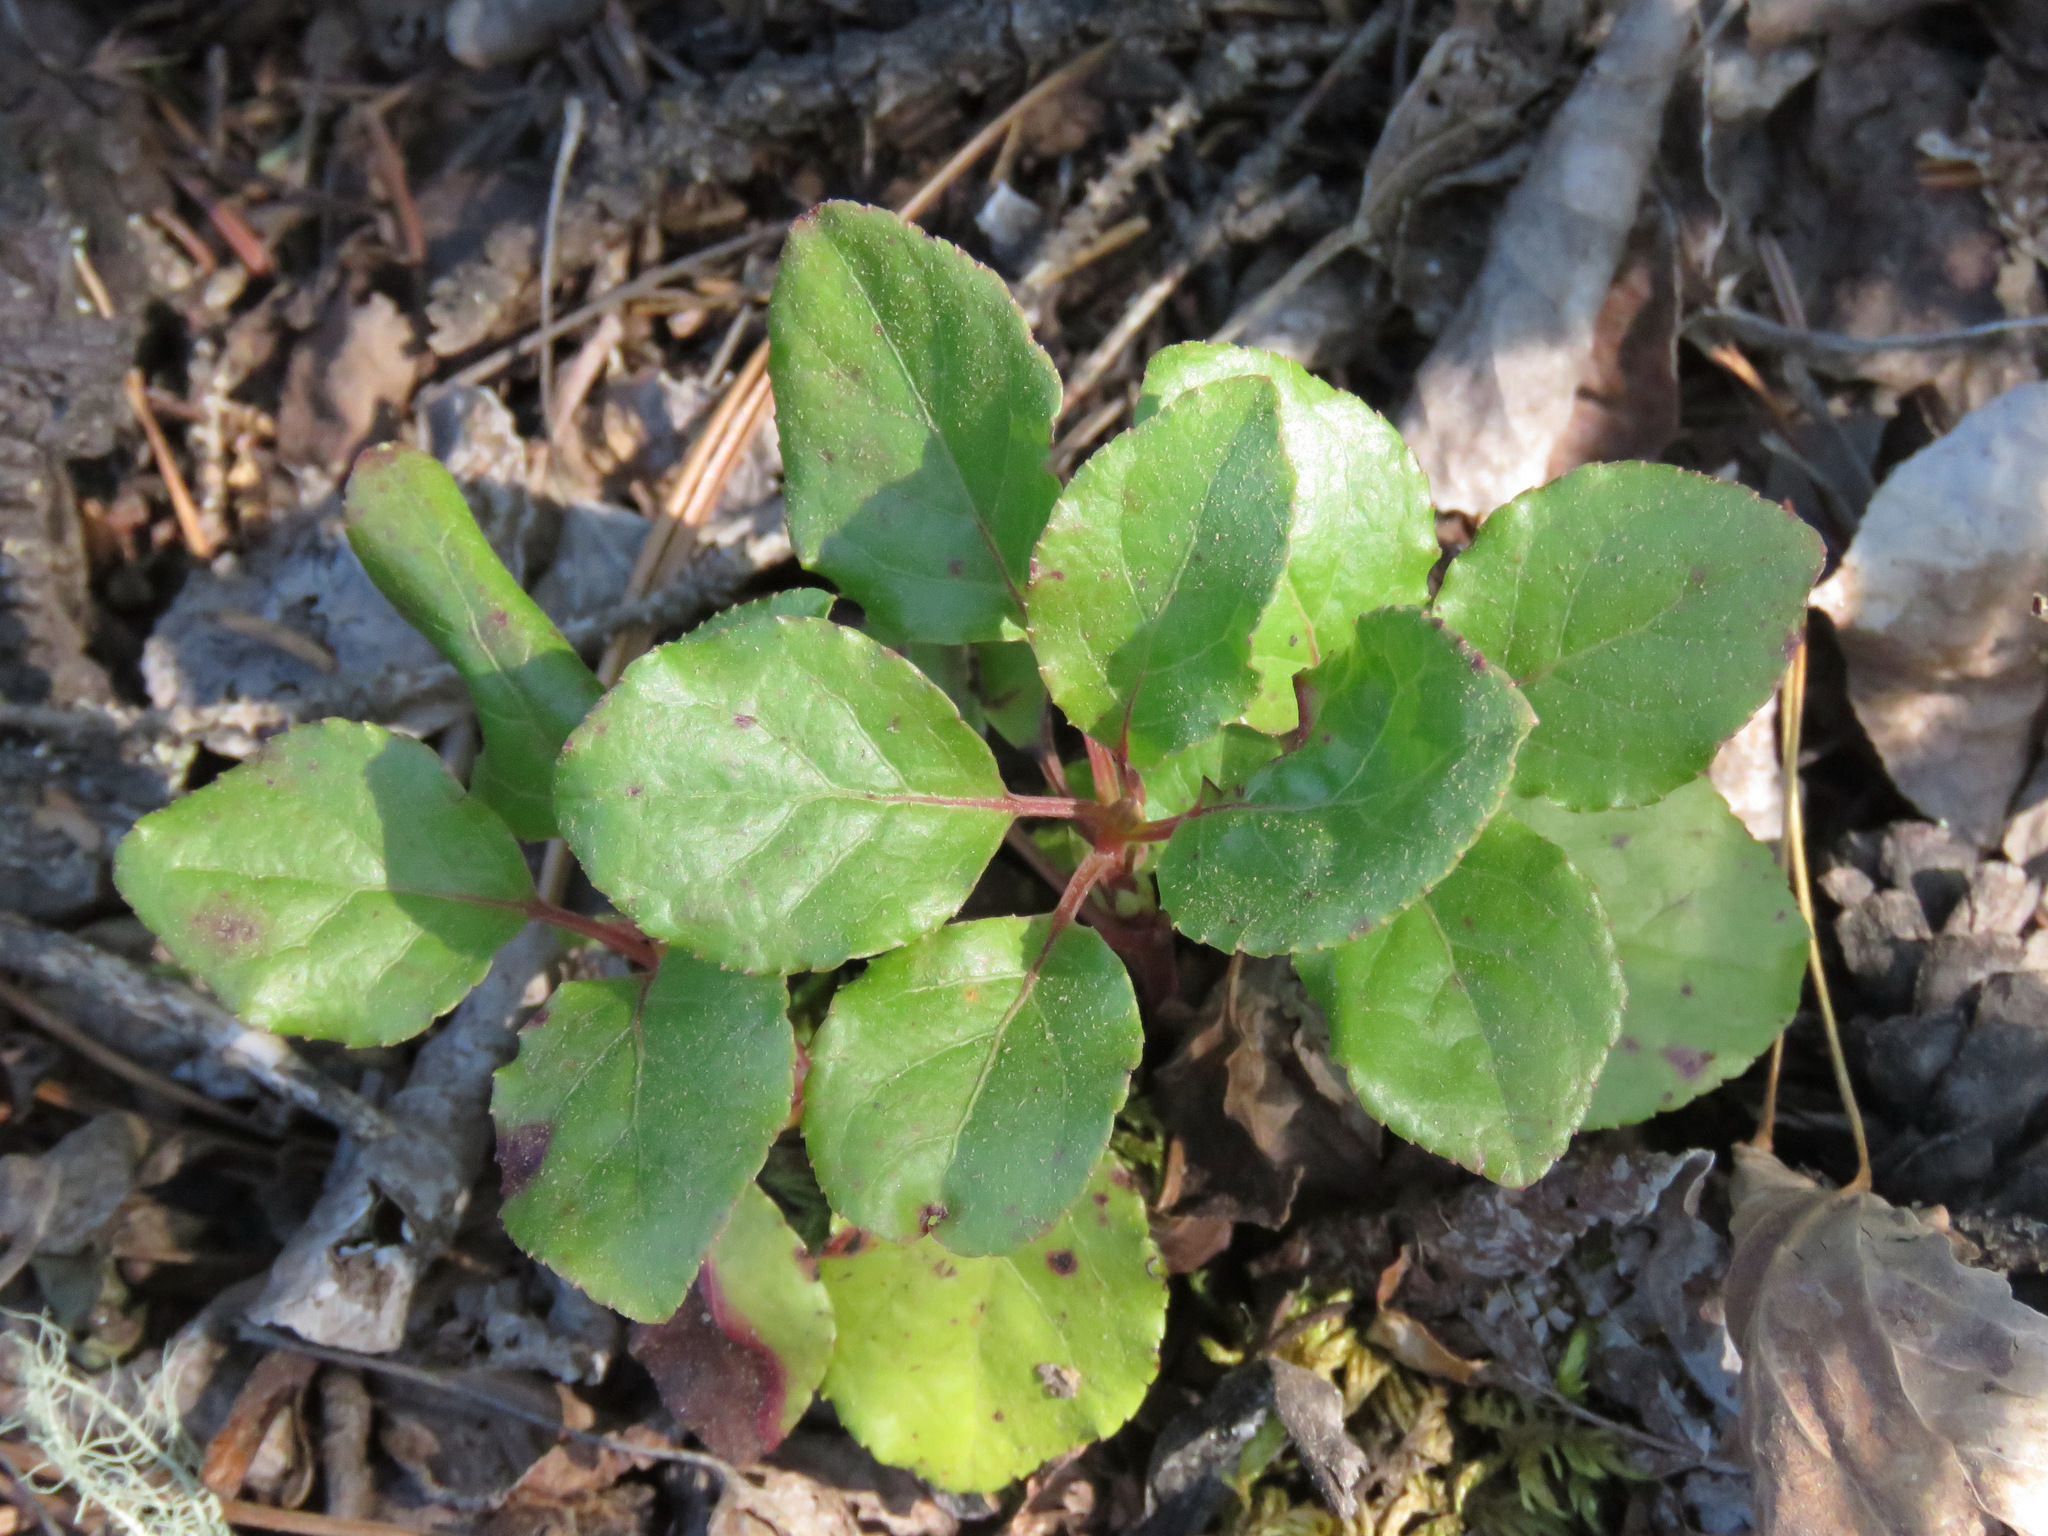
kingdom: Plantae
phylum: Tracheophyta
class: Magnoliopsida
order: Ericales
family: Ericaceae
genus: Orthilia
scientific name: Orthilia secunda
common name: One-sided orthilia
